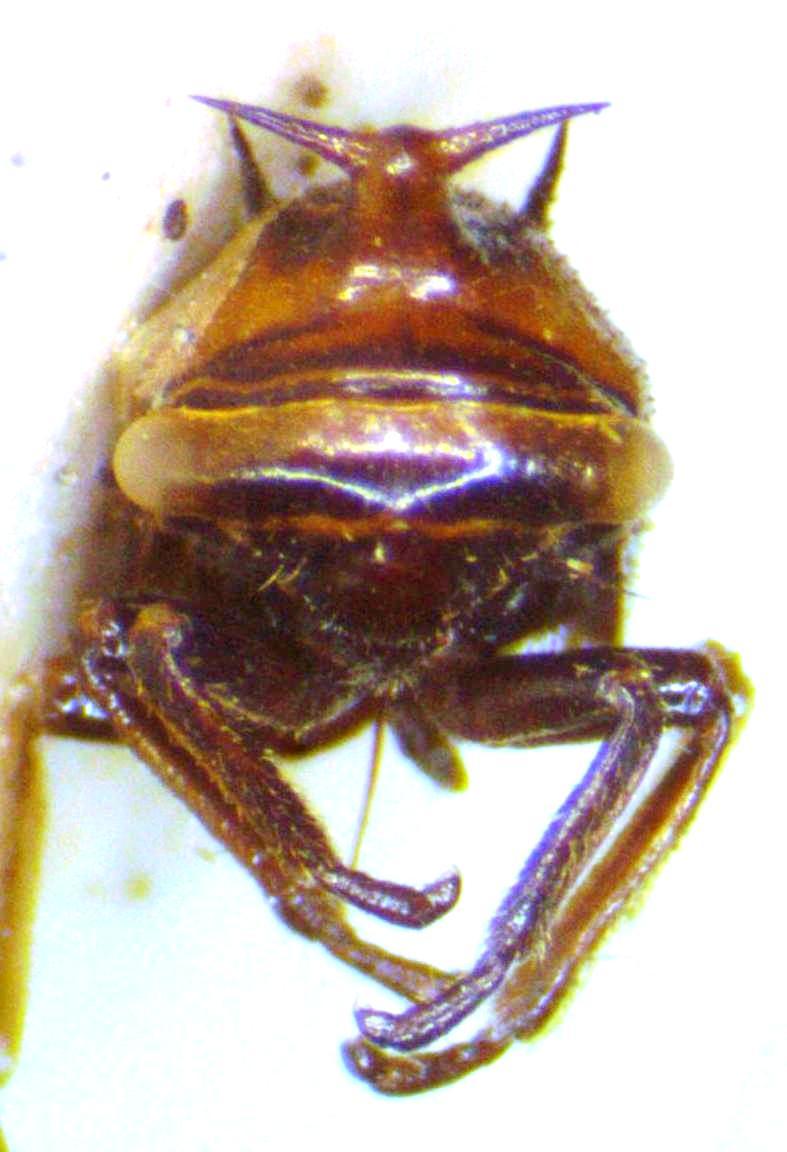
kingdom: Animalia
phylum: Arthropoda
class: Insecta
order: Hemiptera
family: Membracidae
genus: Guayaquila
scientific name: Guayaquila emarginata
